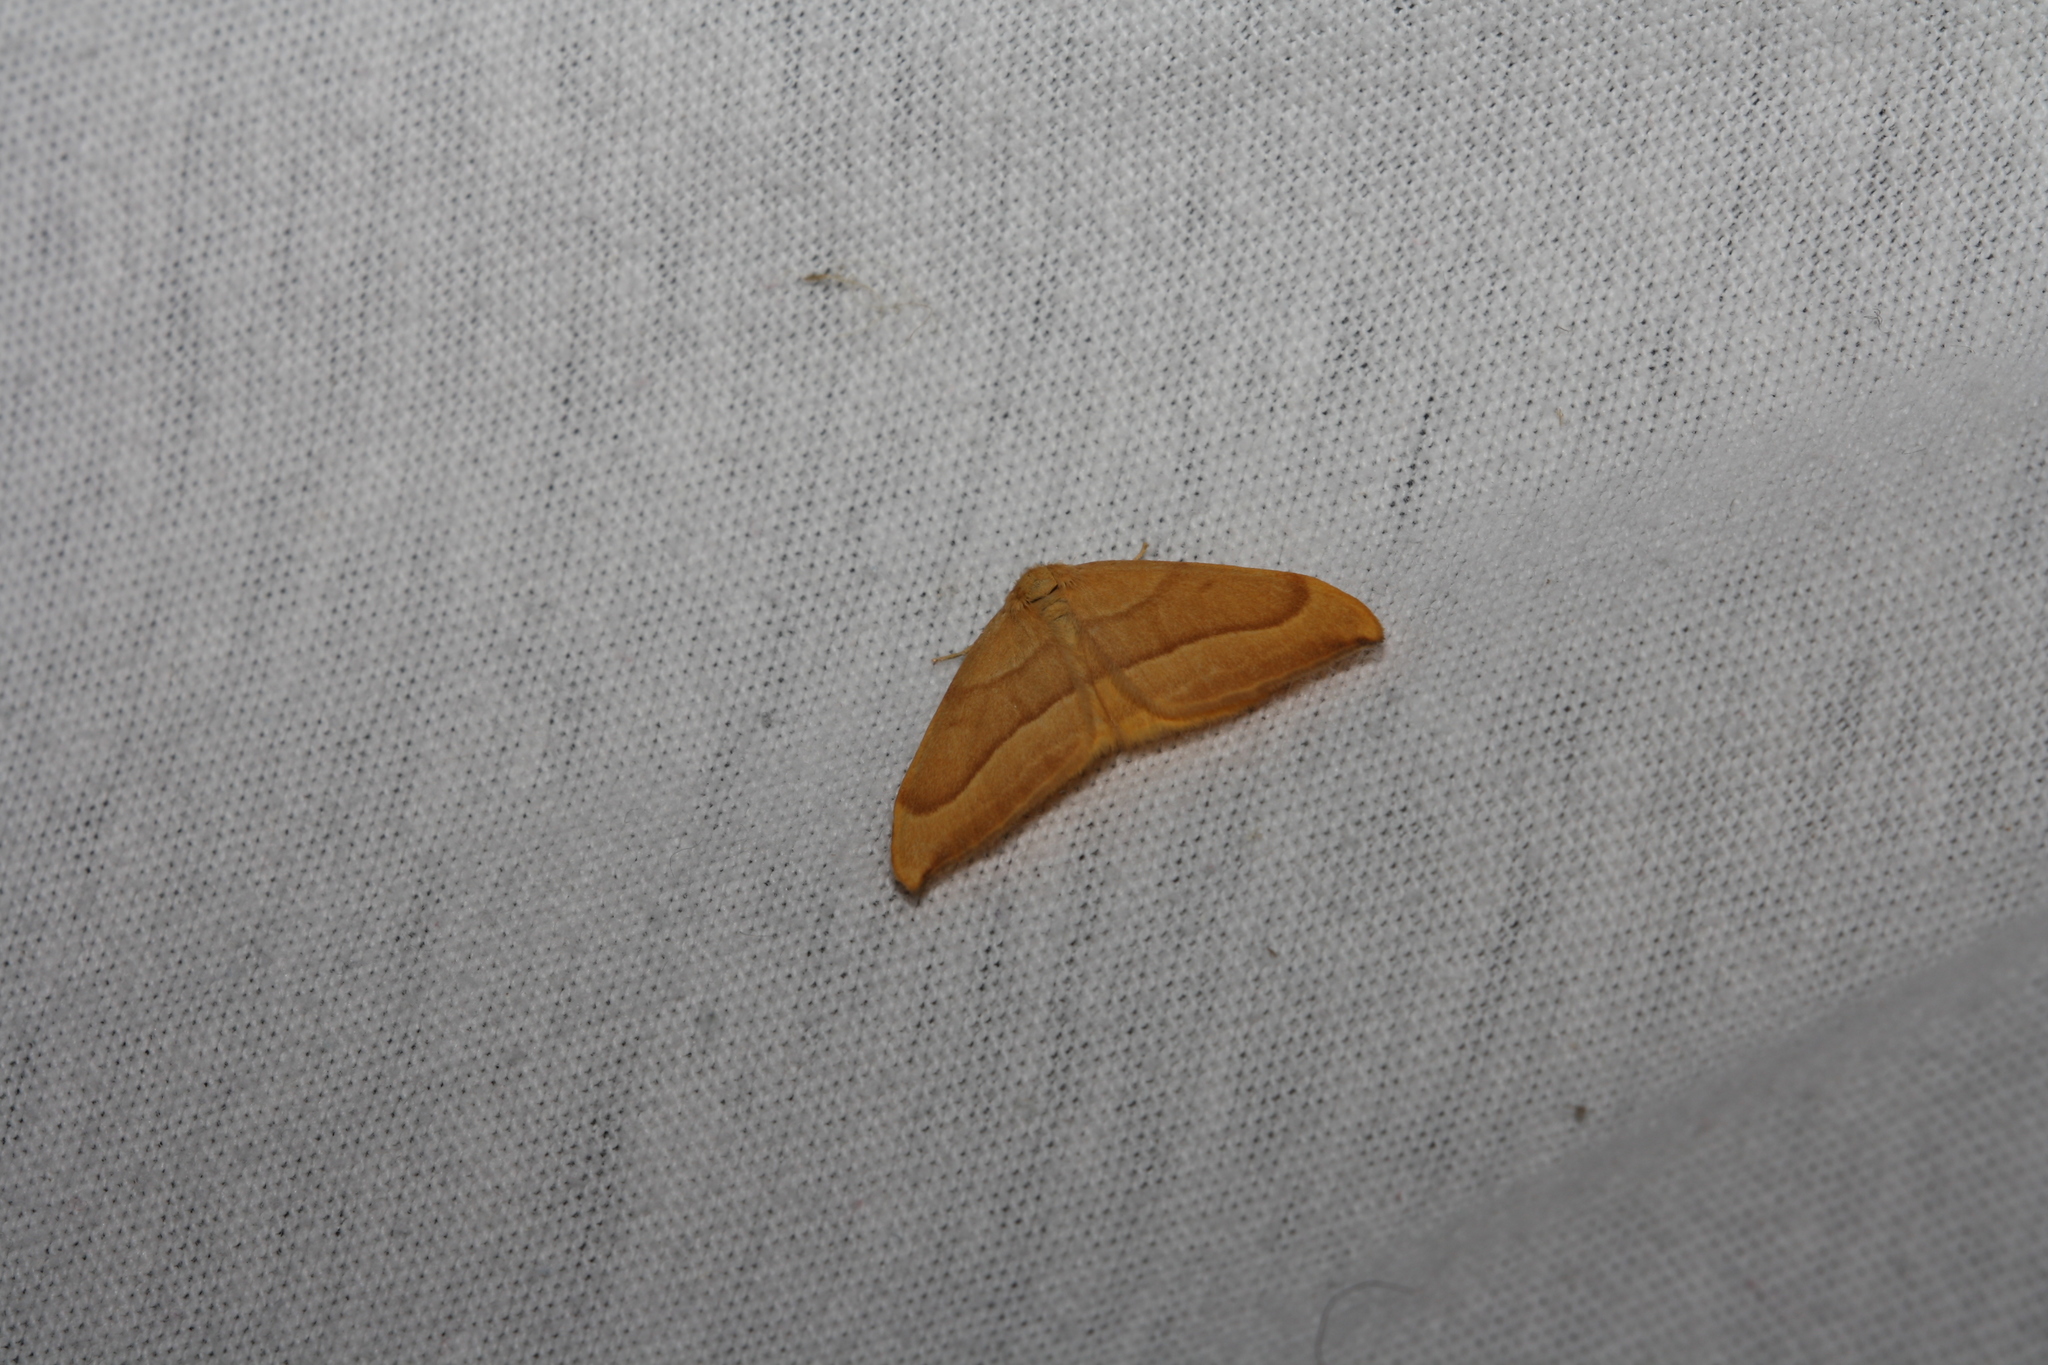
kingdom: Animalia
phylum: Arthropoda
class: Insecta
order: Lepidoptera
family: Drepanidae
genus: Watsonalla
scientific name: Watsonalla cultraria
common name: Barred hook-tip
